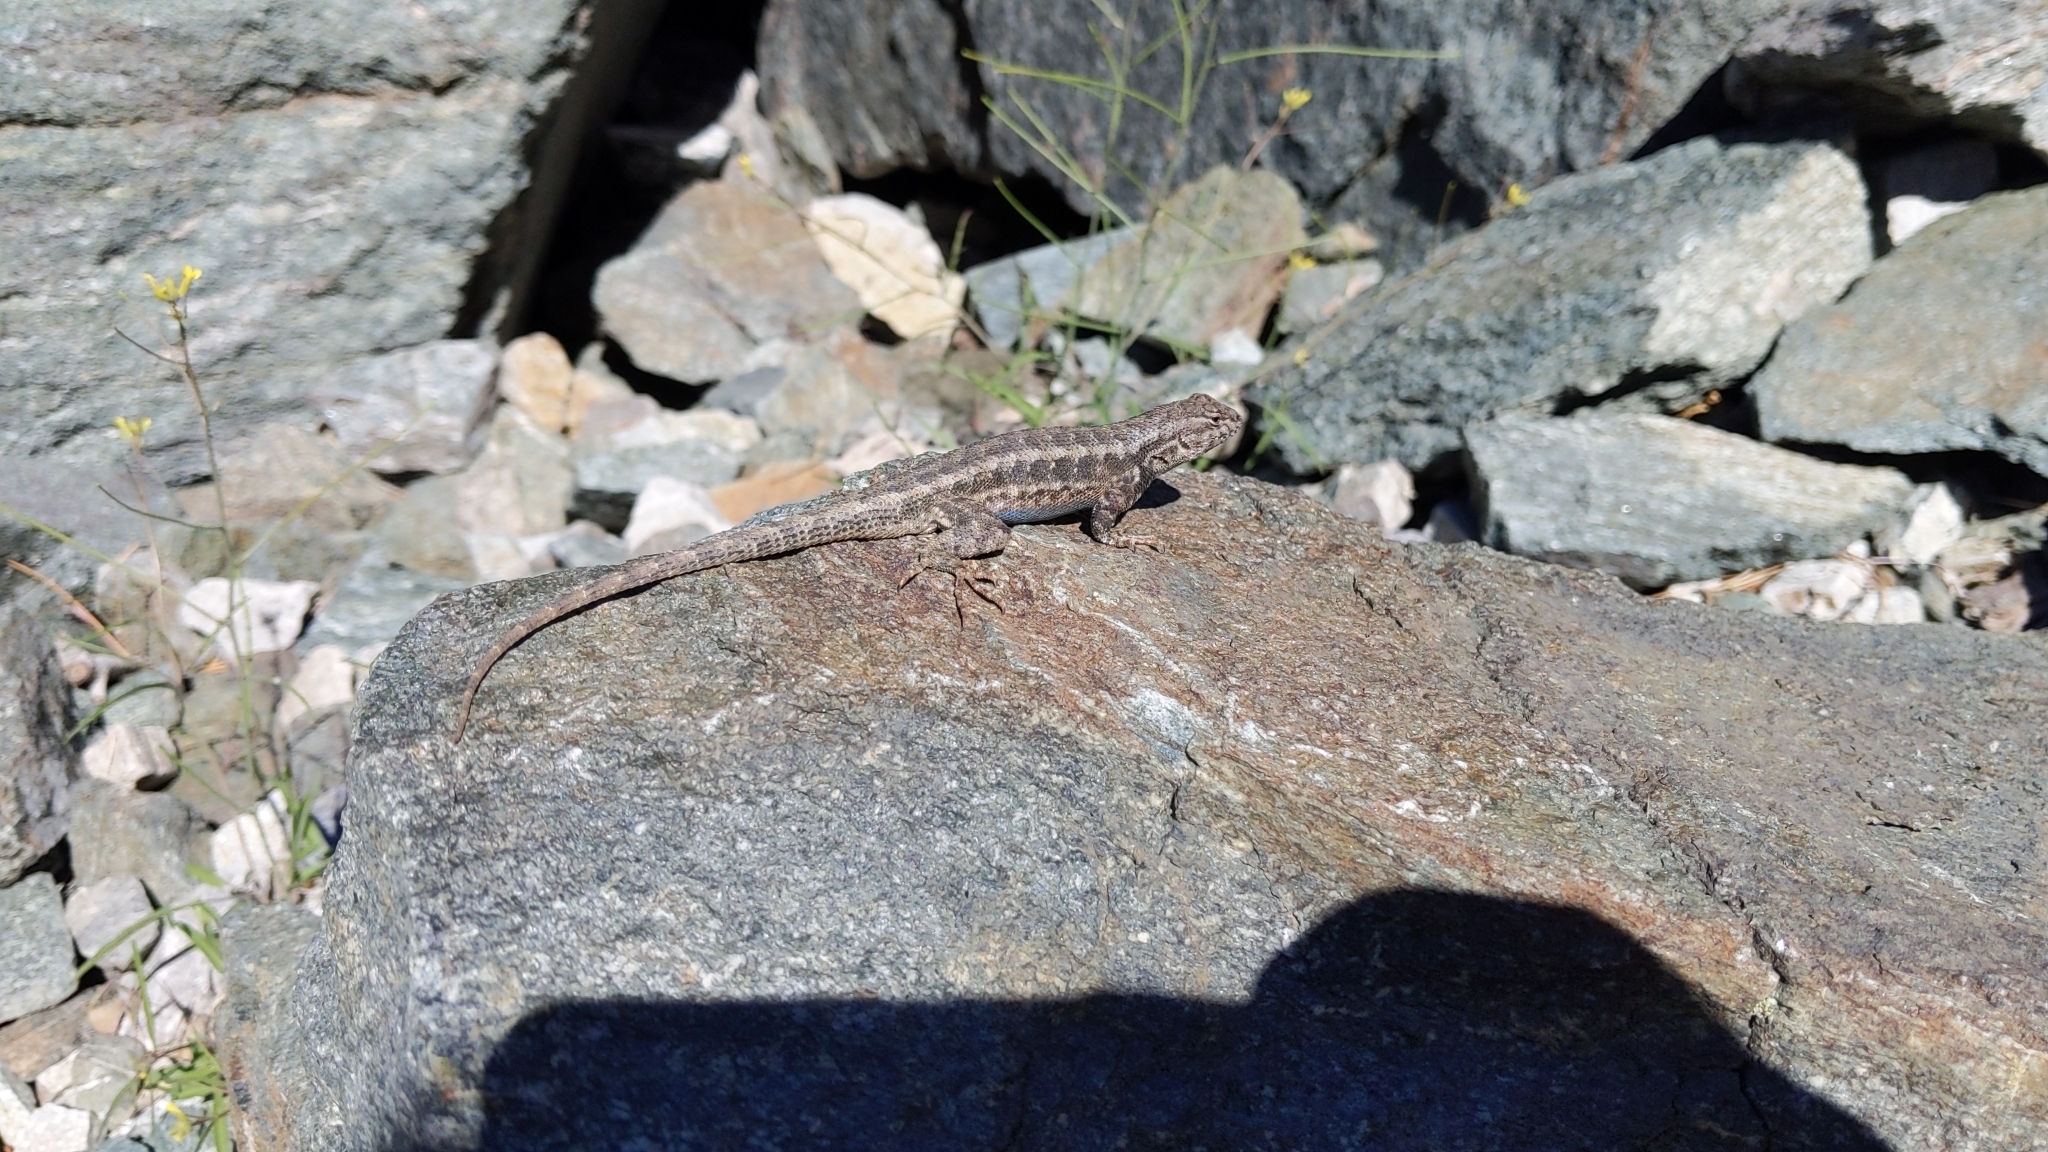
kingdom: Animalia
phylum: Chordata
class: Squamata
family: Phrynosomatidae
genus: Sceloporus
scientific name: Sceloporus graciosus
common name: Sagebrush lizard
